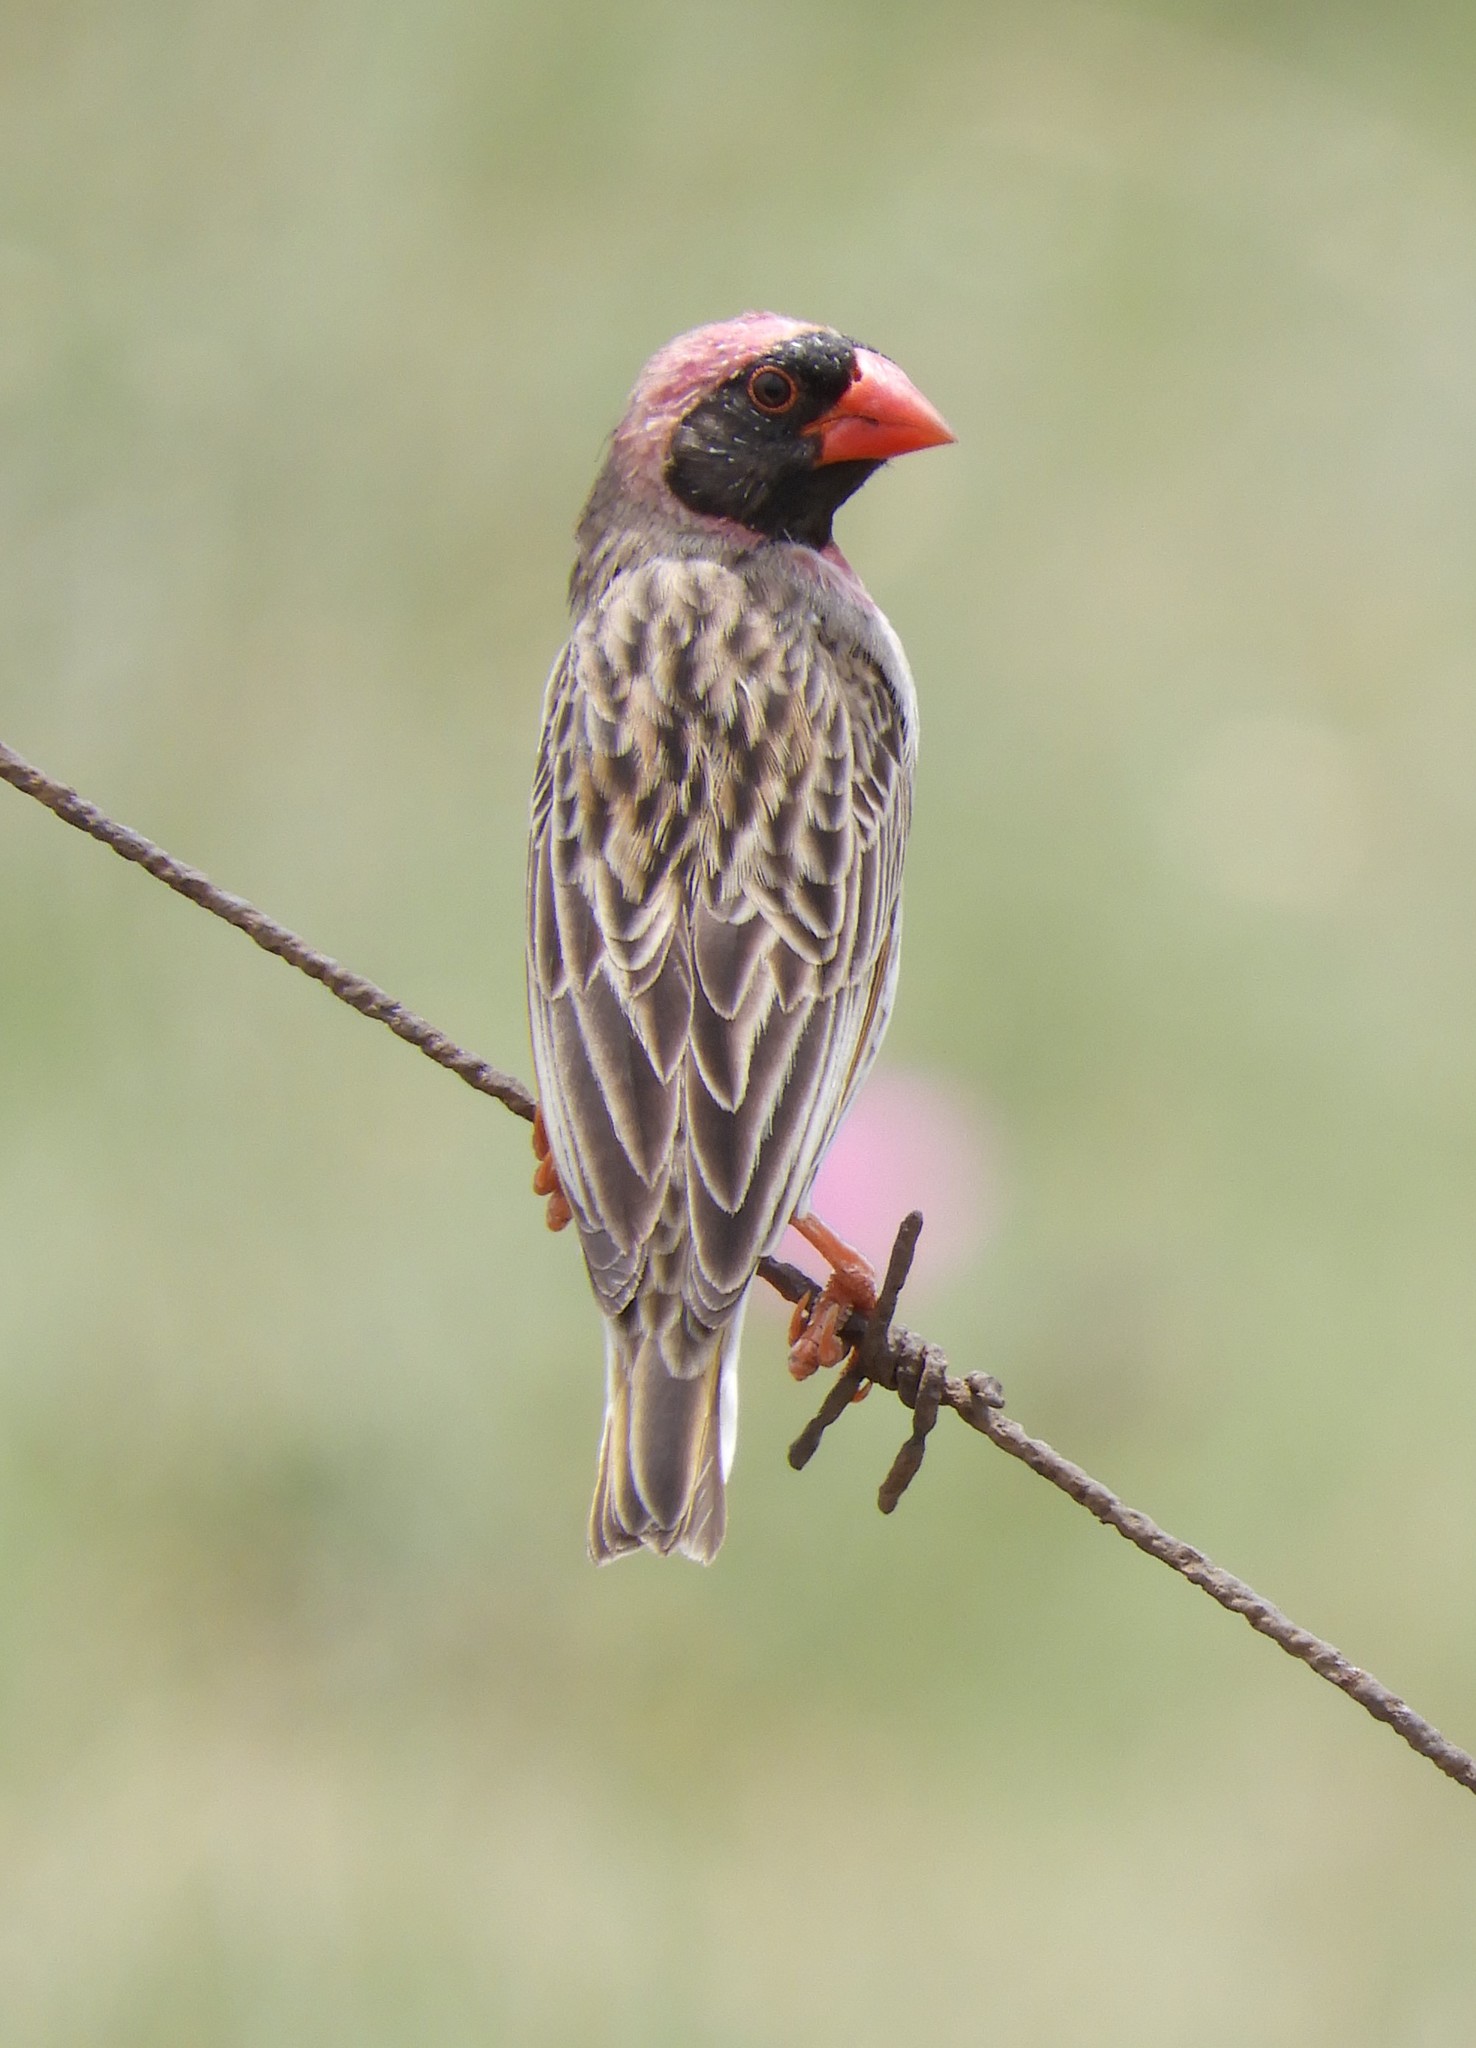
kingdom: Animalia
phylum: Chordata
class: Aves
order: Passeriformes
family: Ploceidae
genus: Quelea
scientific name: Quelea quelea
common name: Red-billed quelea
